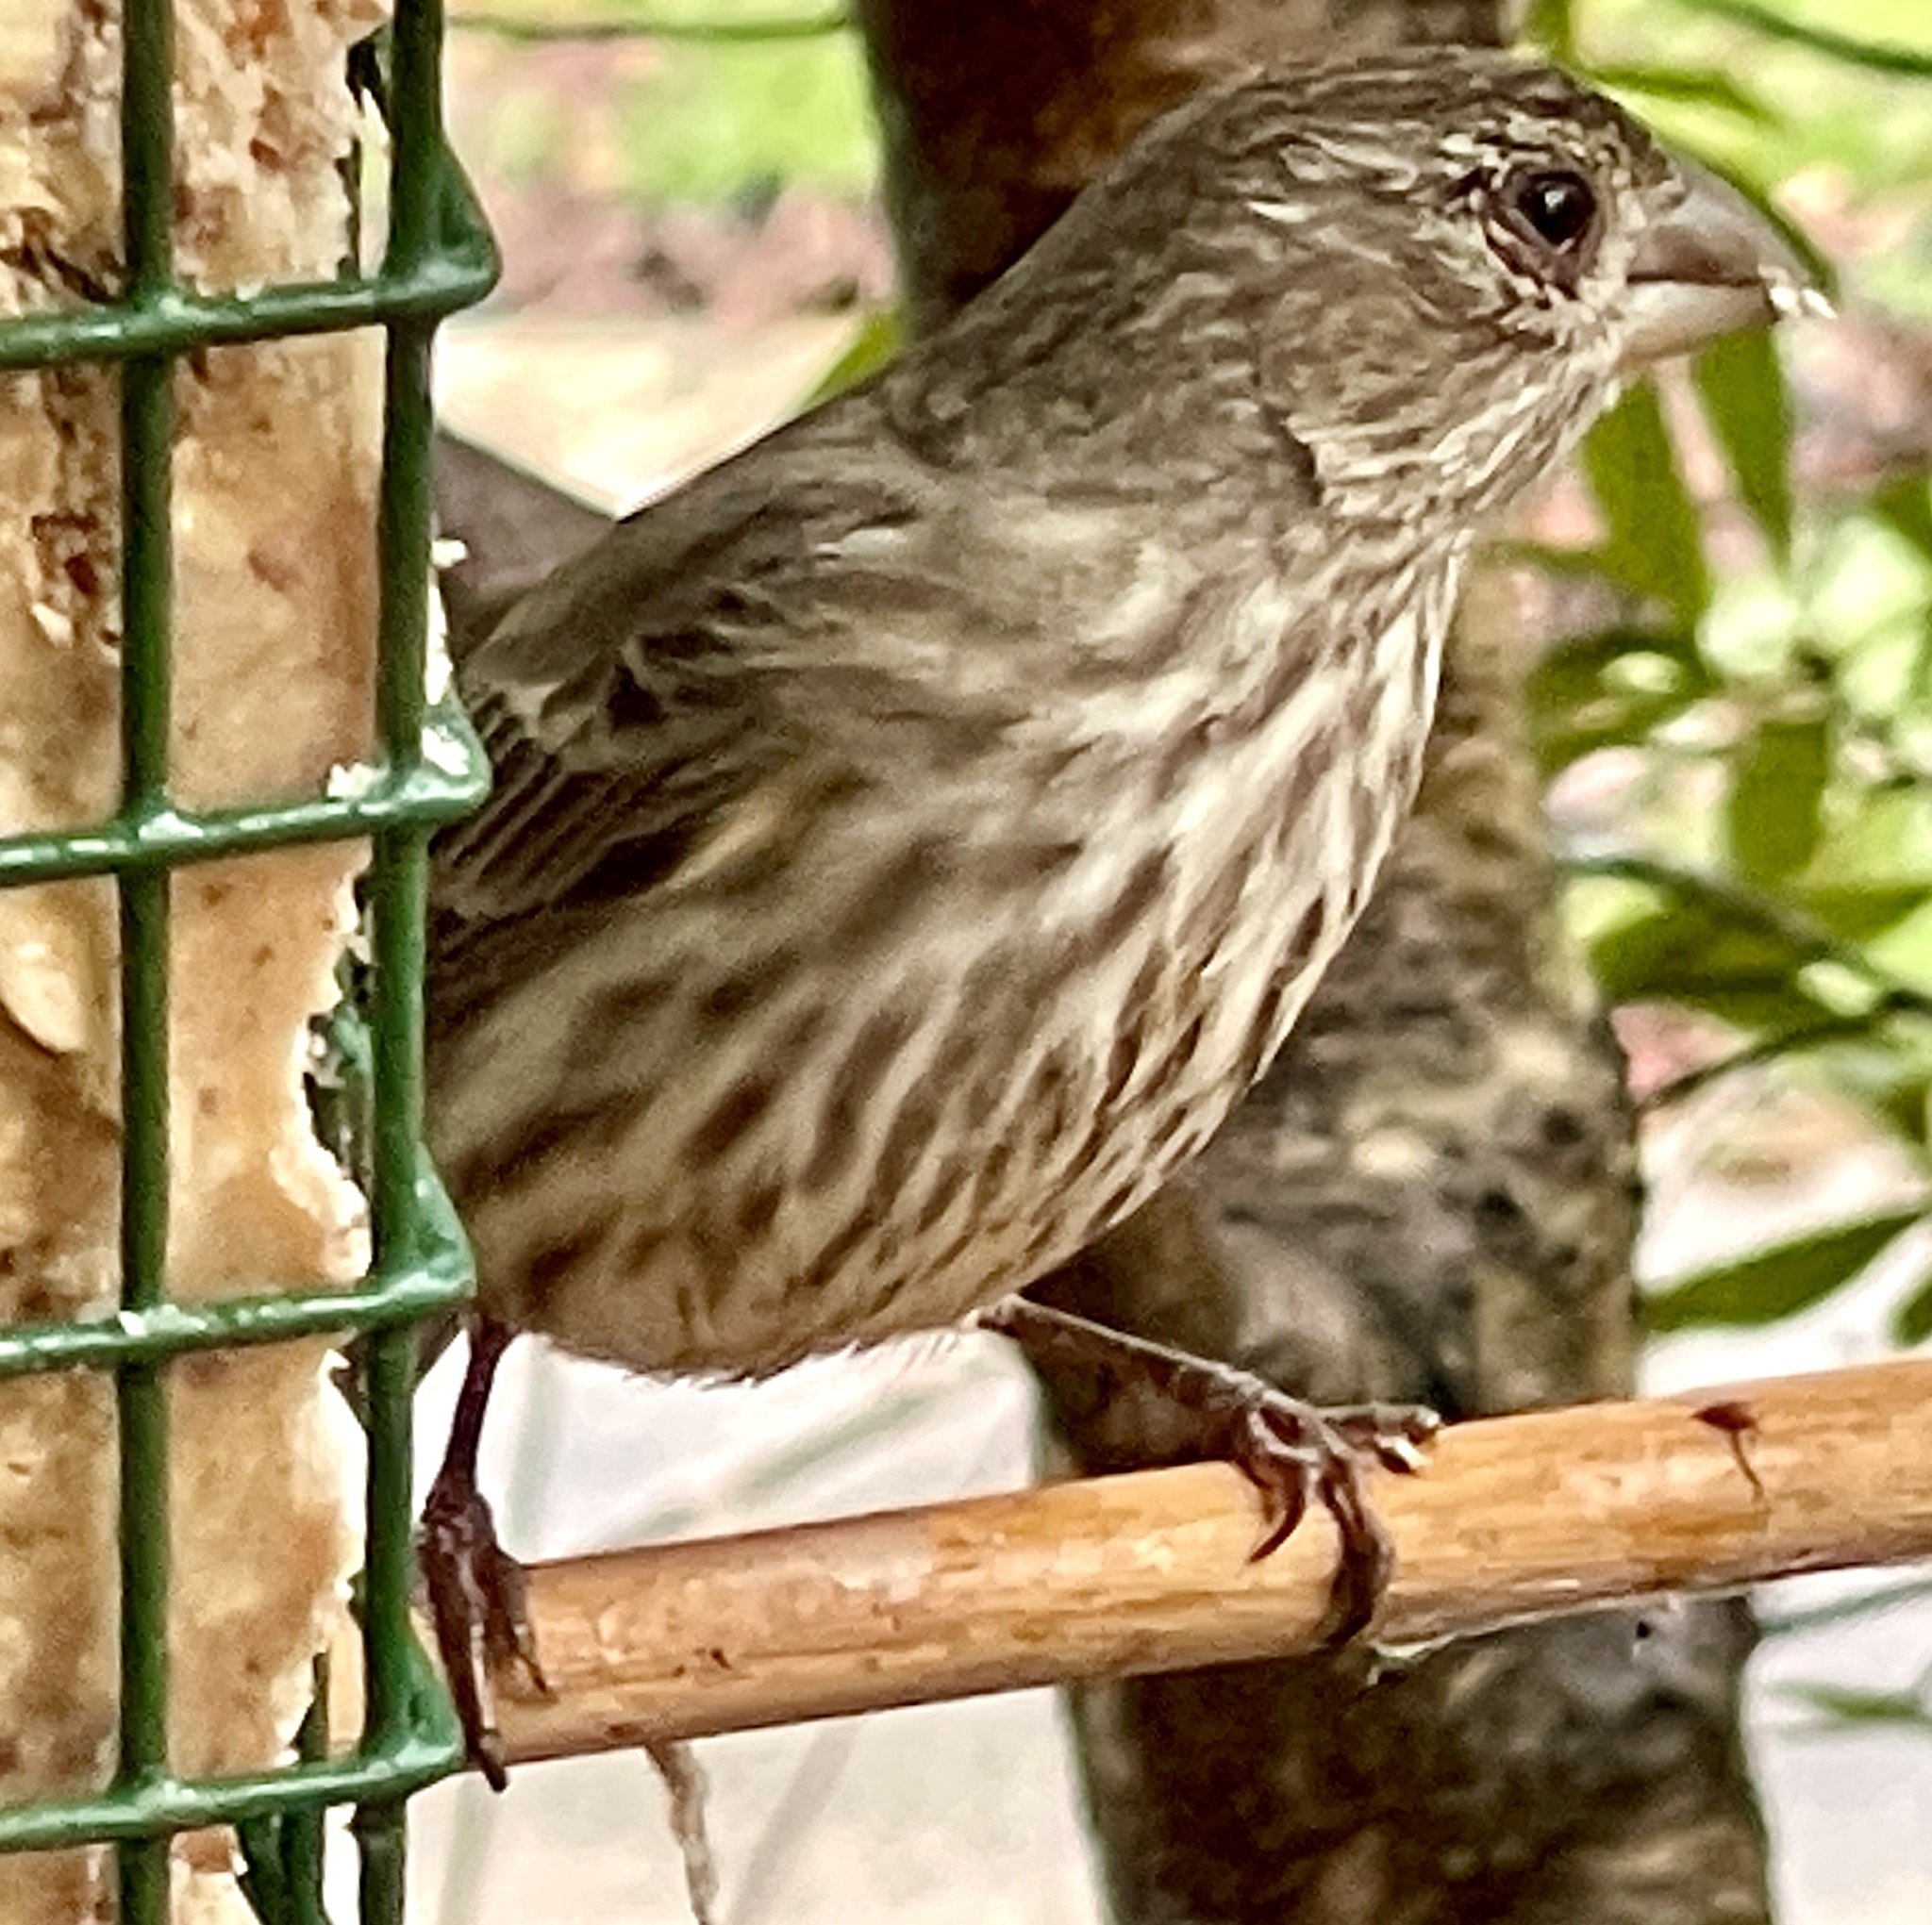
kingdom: Animalia
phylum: Chordata
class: Aves
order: Passeriformes
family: Fringillidae
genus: Haemorhous
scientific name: Haemorhous mexicanus
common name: House finch
